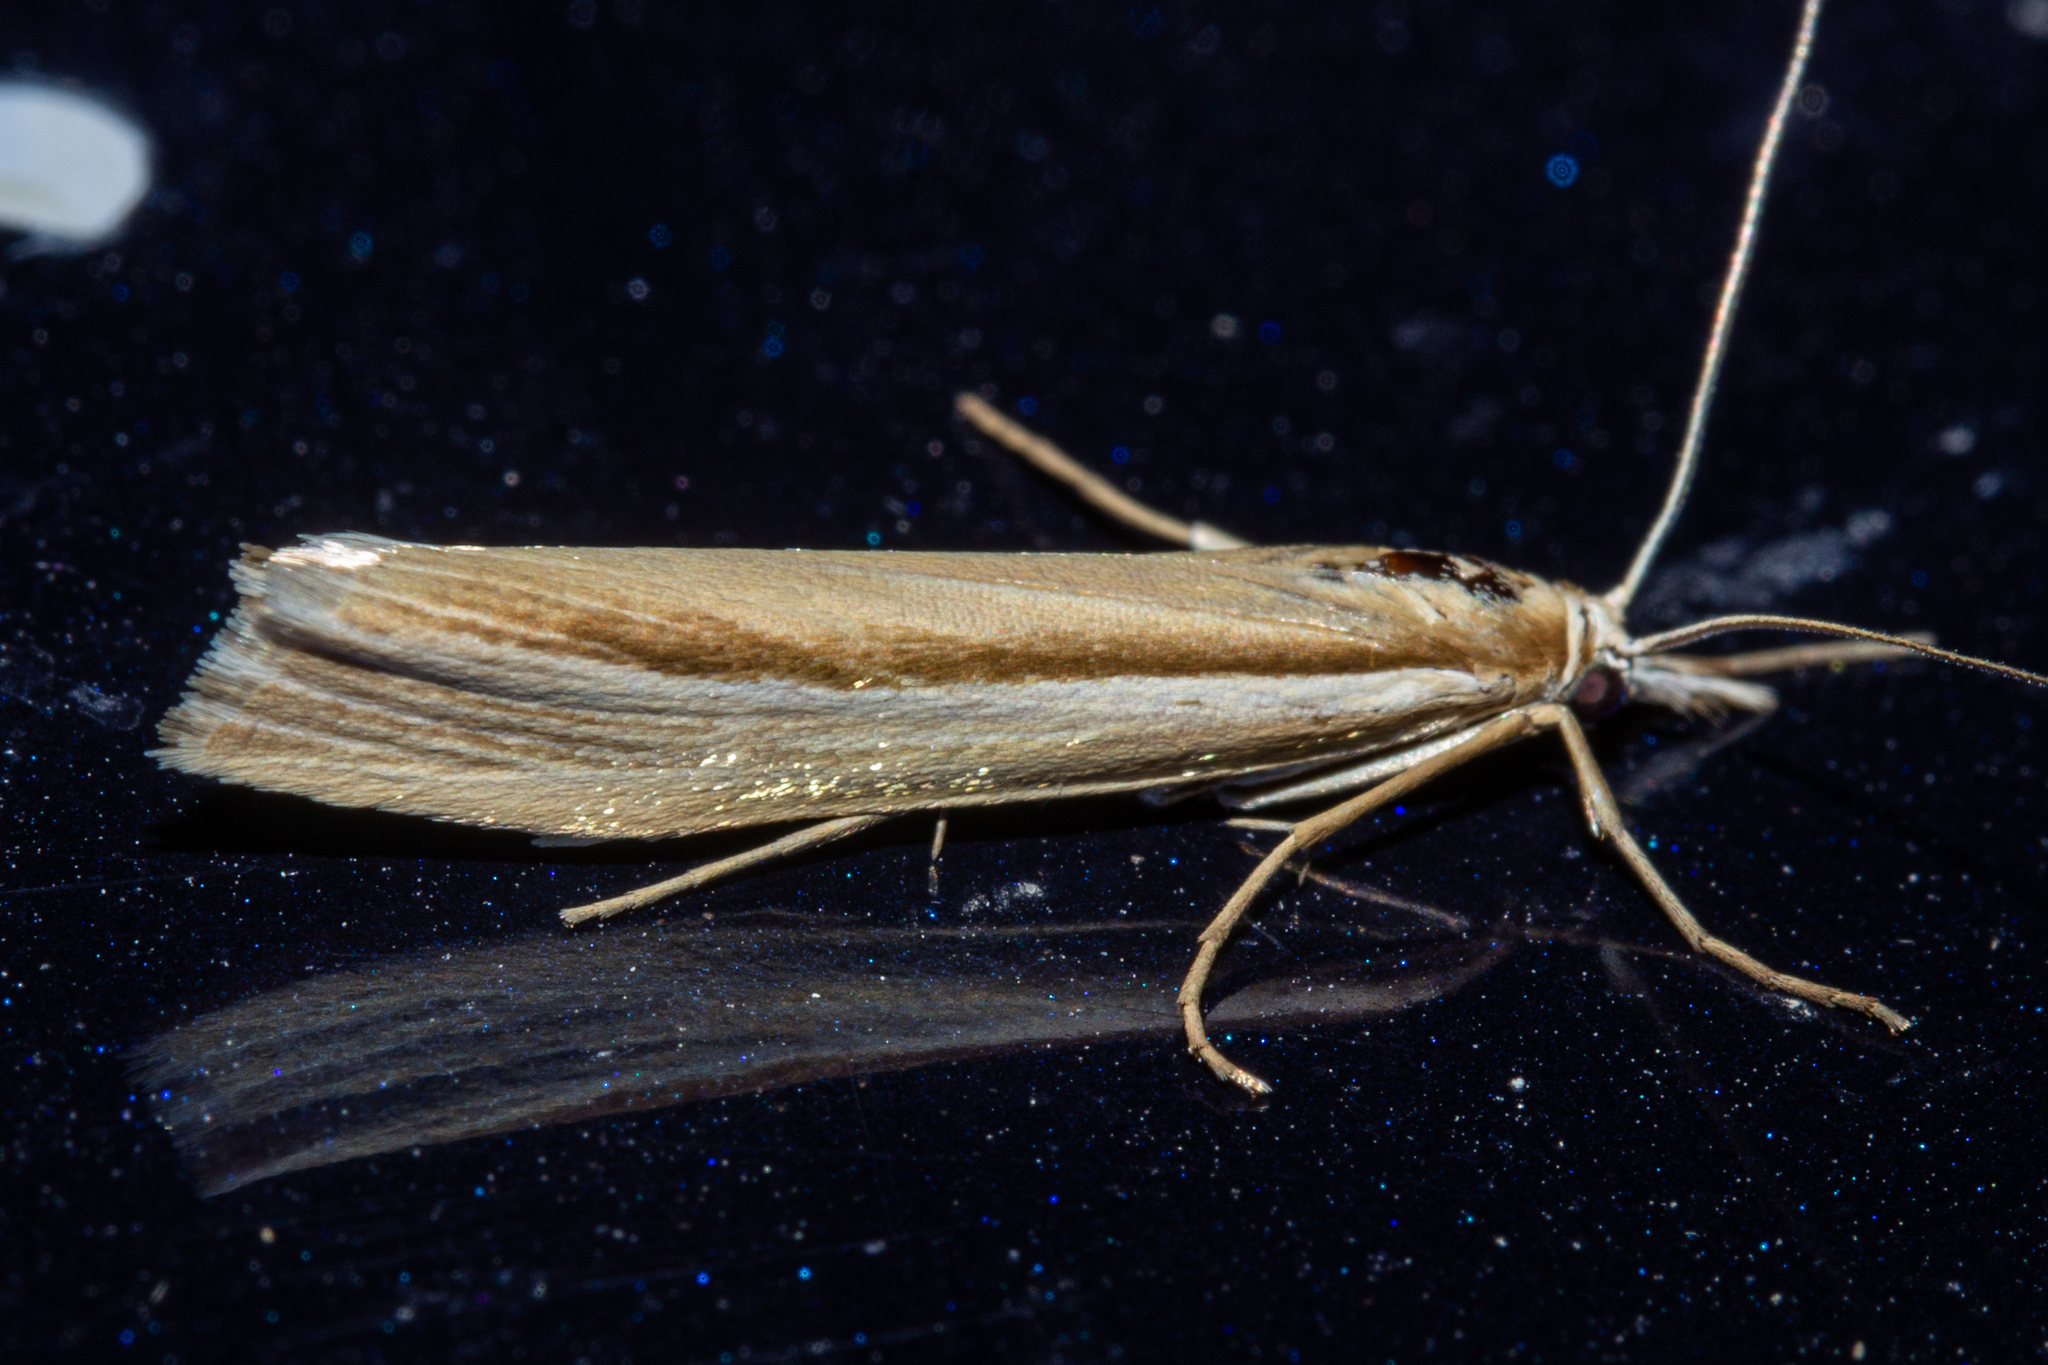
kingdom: Animalia
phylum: Arthropoda
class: Insecta
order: Lepidoptera
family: Crambidae
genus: Orocrambus
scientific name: Orocrambus ramosellus
